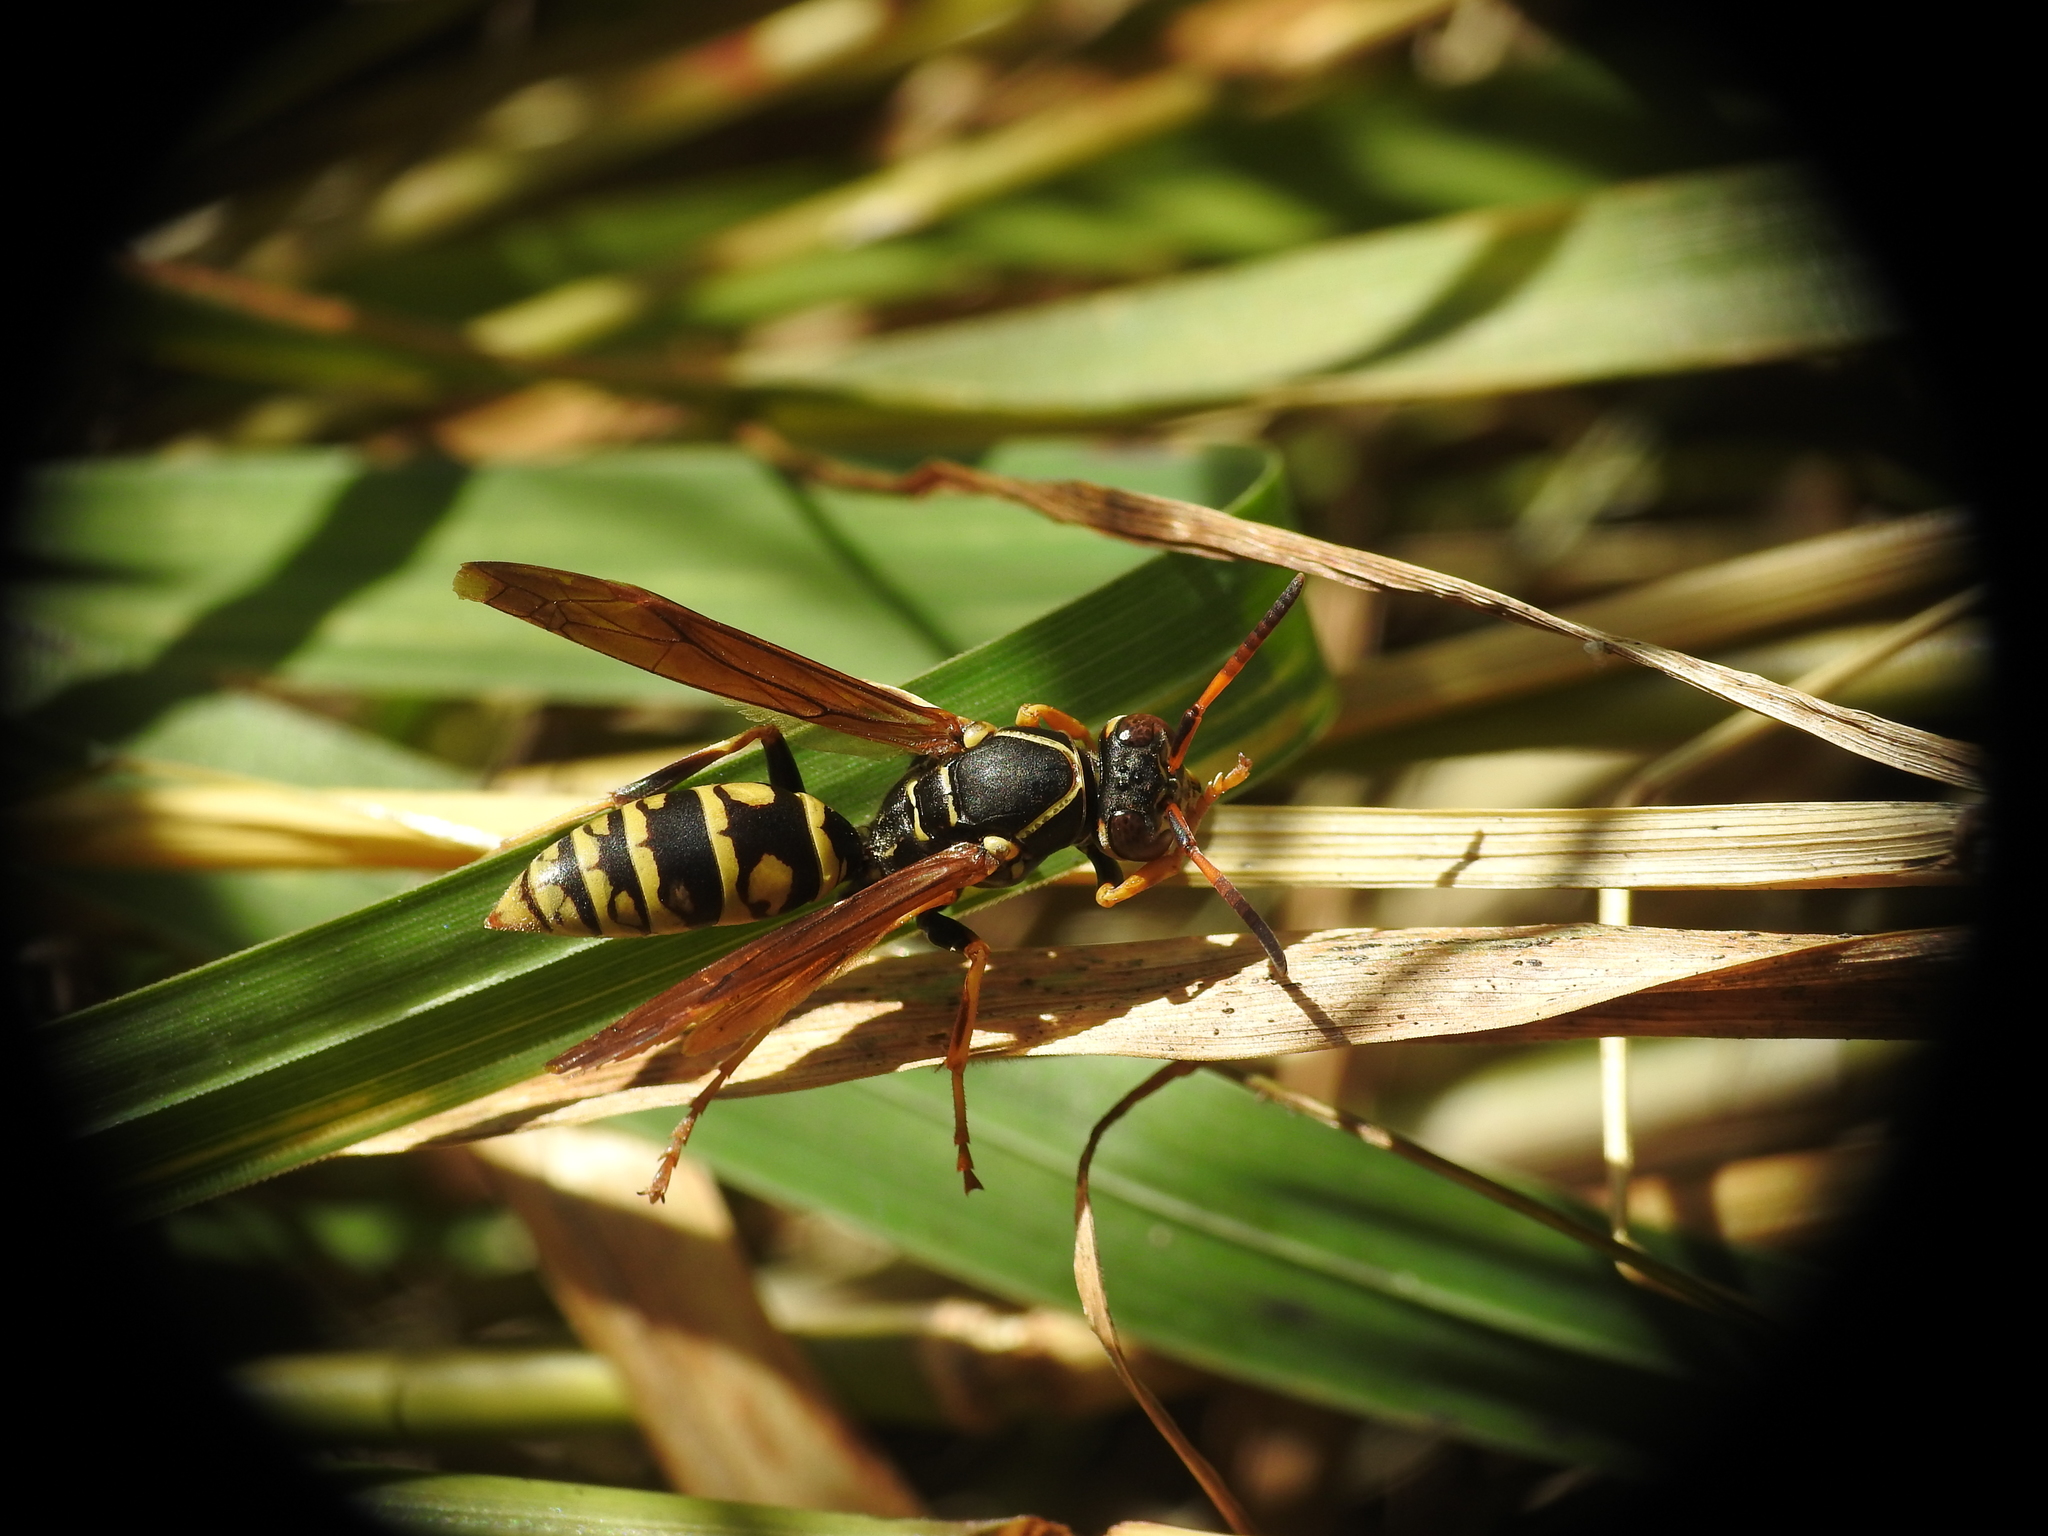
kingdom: Animalia
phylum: Arthropoda
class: Insecta
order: Hymenoptera
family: Eumenidae
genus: Polistes
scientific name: Polistes aurifer
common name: Paper wasp
